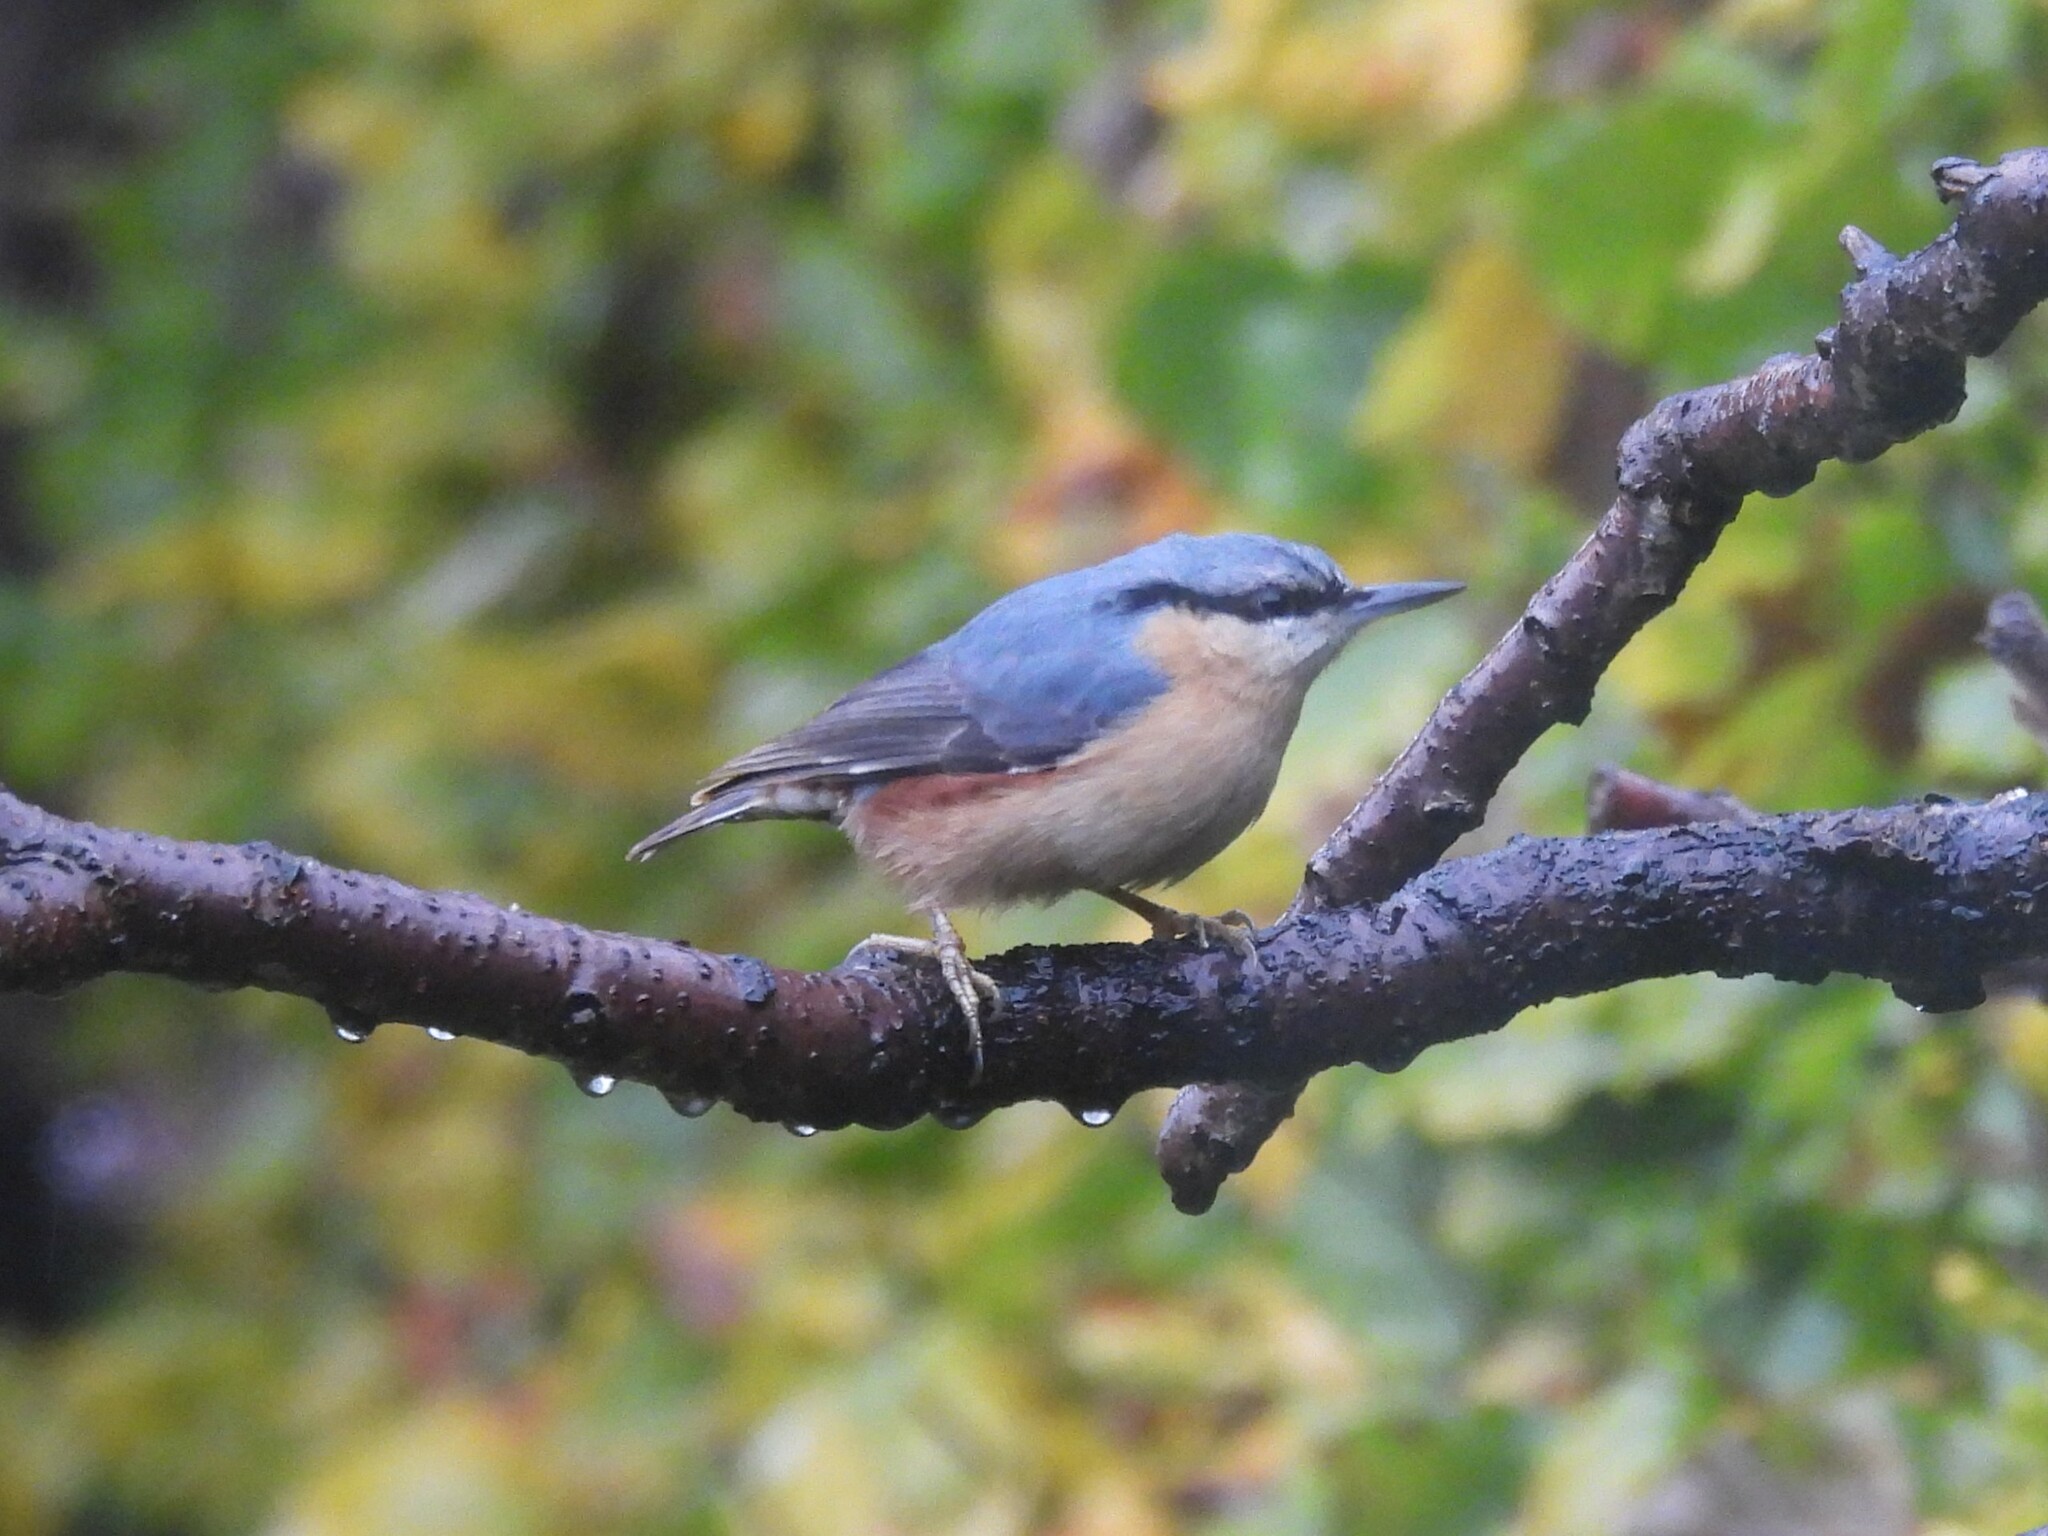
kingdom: Animalia
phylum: Chordata
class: Aves
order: Passeriformes
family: Sittidae
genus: Sitta
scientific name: Sitta europaea
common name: Eurasian nuthatch
